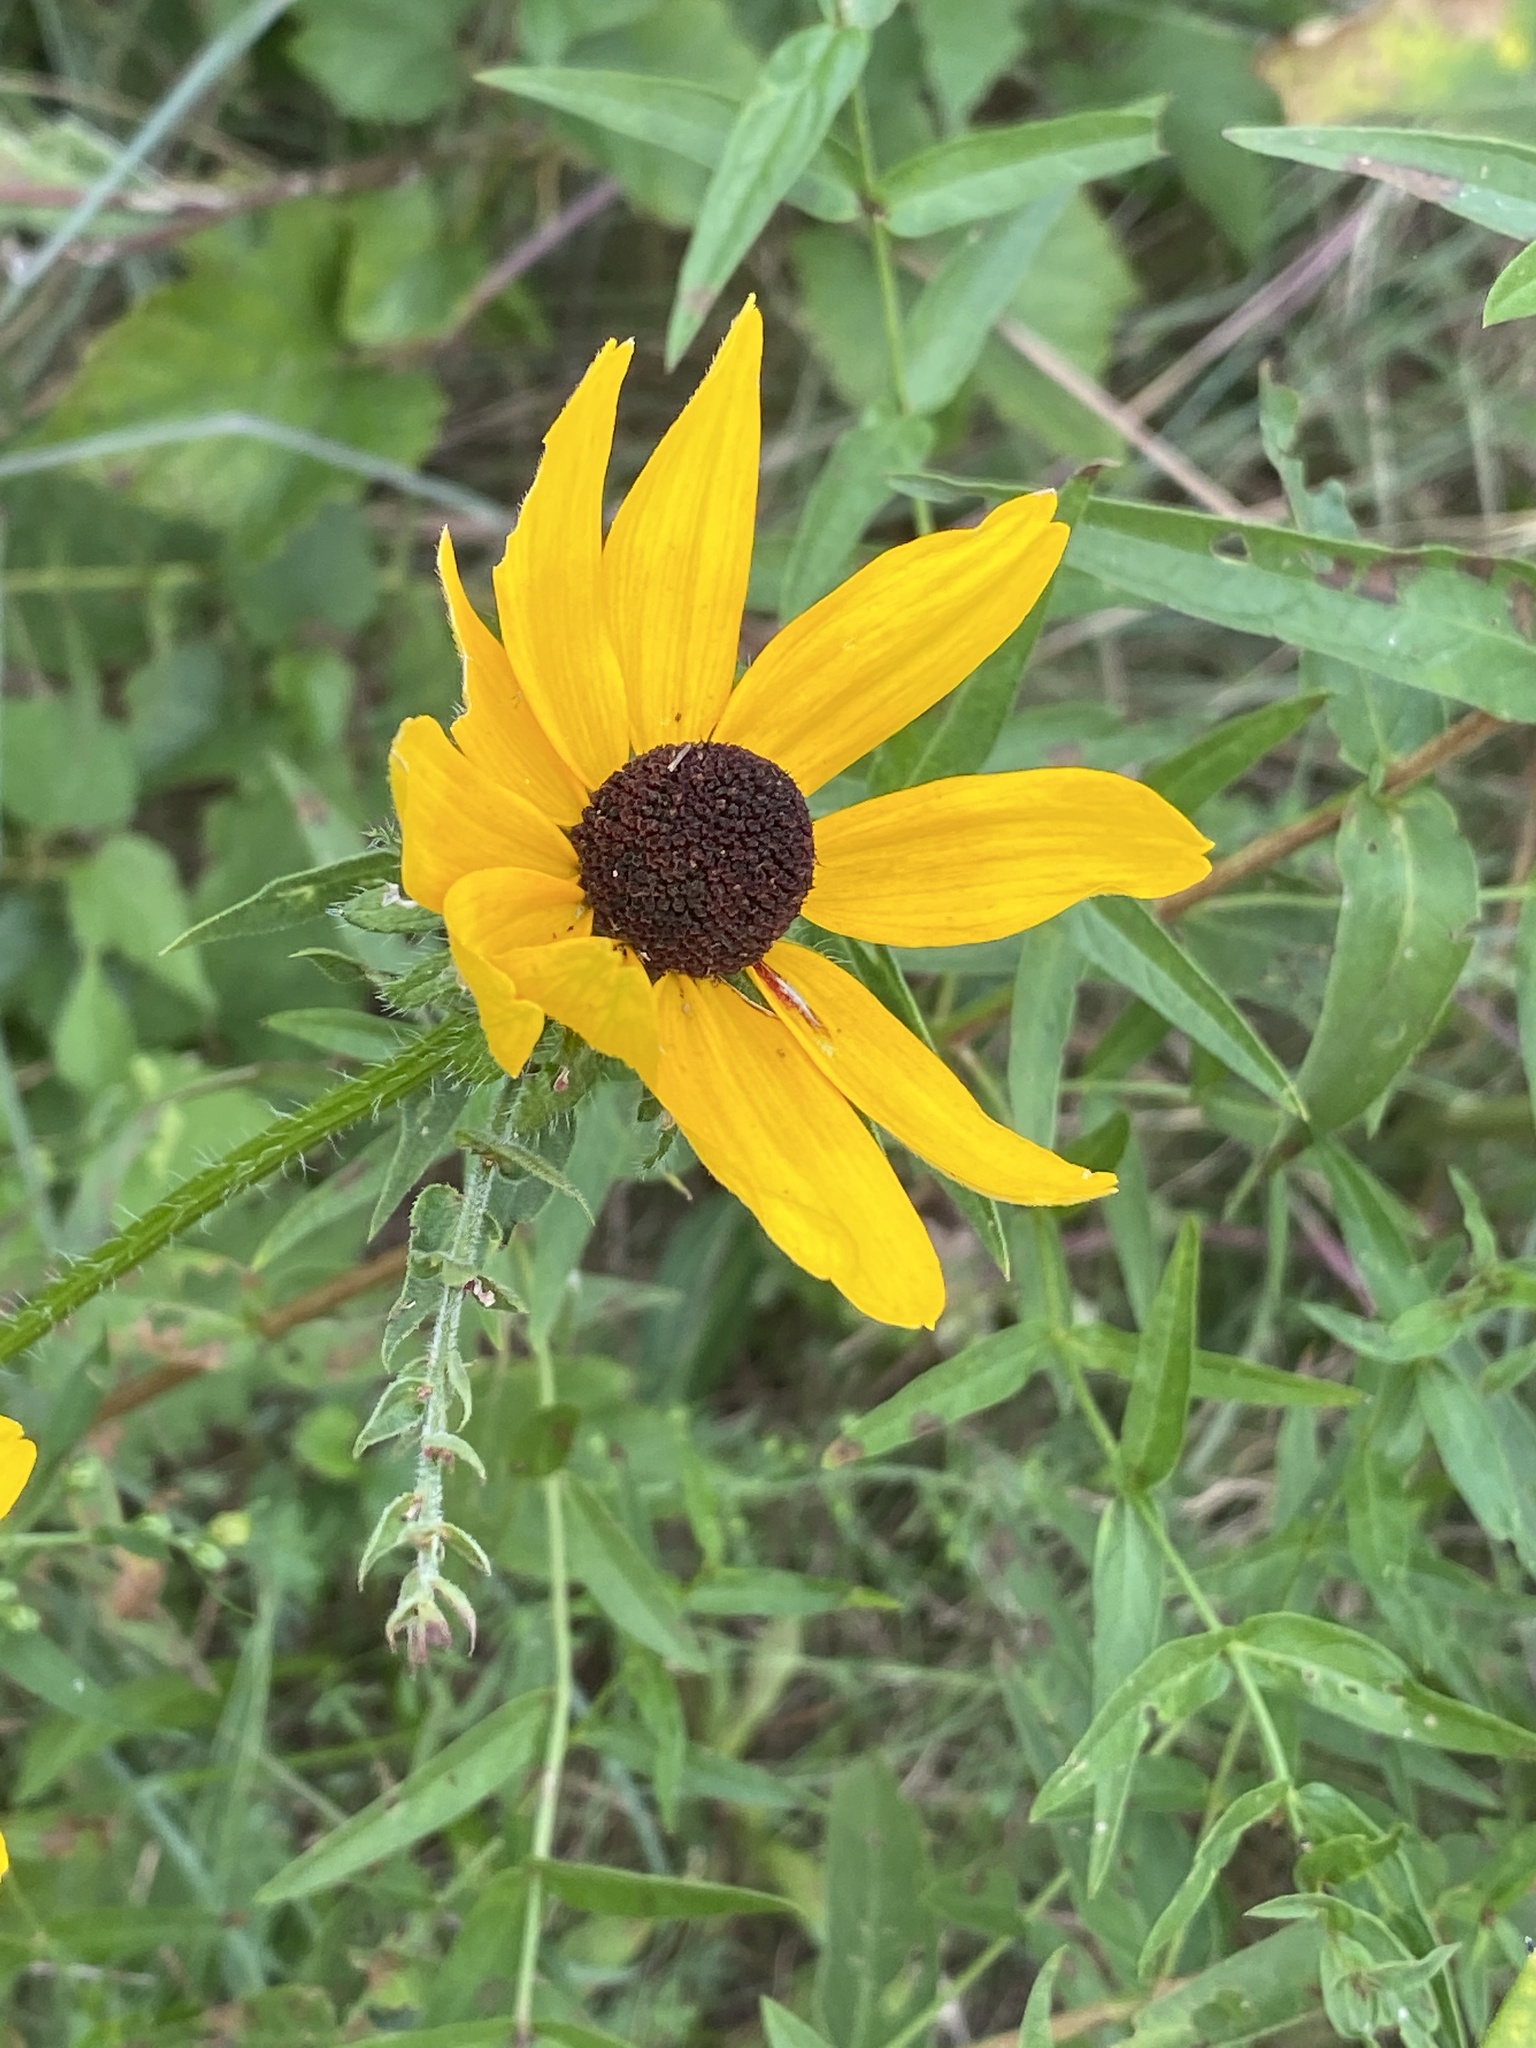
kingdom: Plantae
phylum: Tracheophyta
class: Magnoliopsida
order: Asterales
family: Asteraceae
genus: Rudbeckia
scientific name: Rudbeckia hirta
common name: Black-eyed-susan
